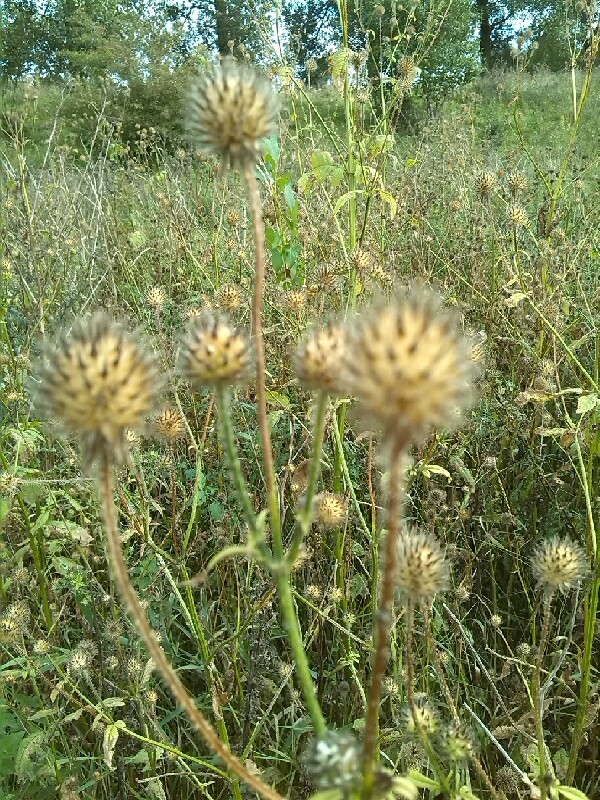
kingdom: Plantae
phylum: Tracheophyta
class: Magnoliopsida
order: Dipsacales
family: Caprifoliaceae
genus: Dipsacus
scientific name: Dipsacus pilosus
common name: Small teasel
